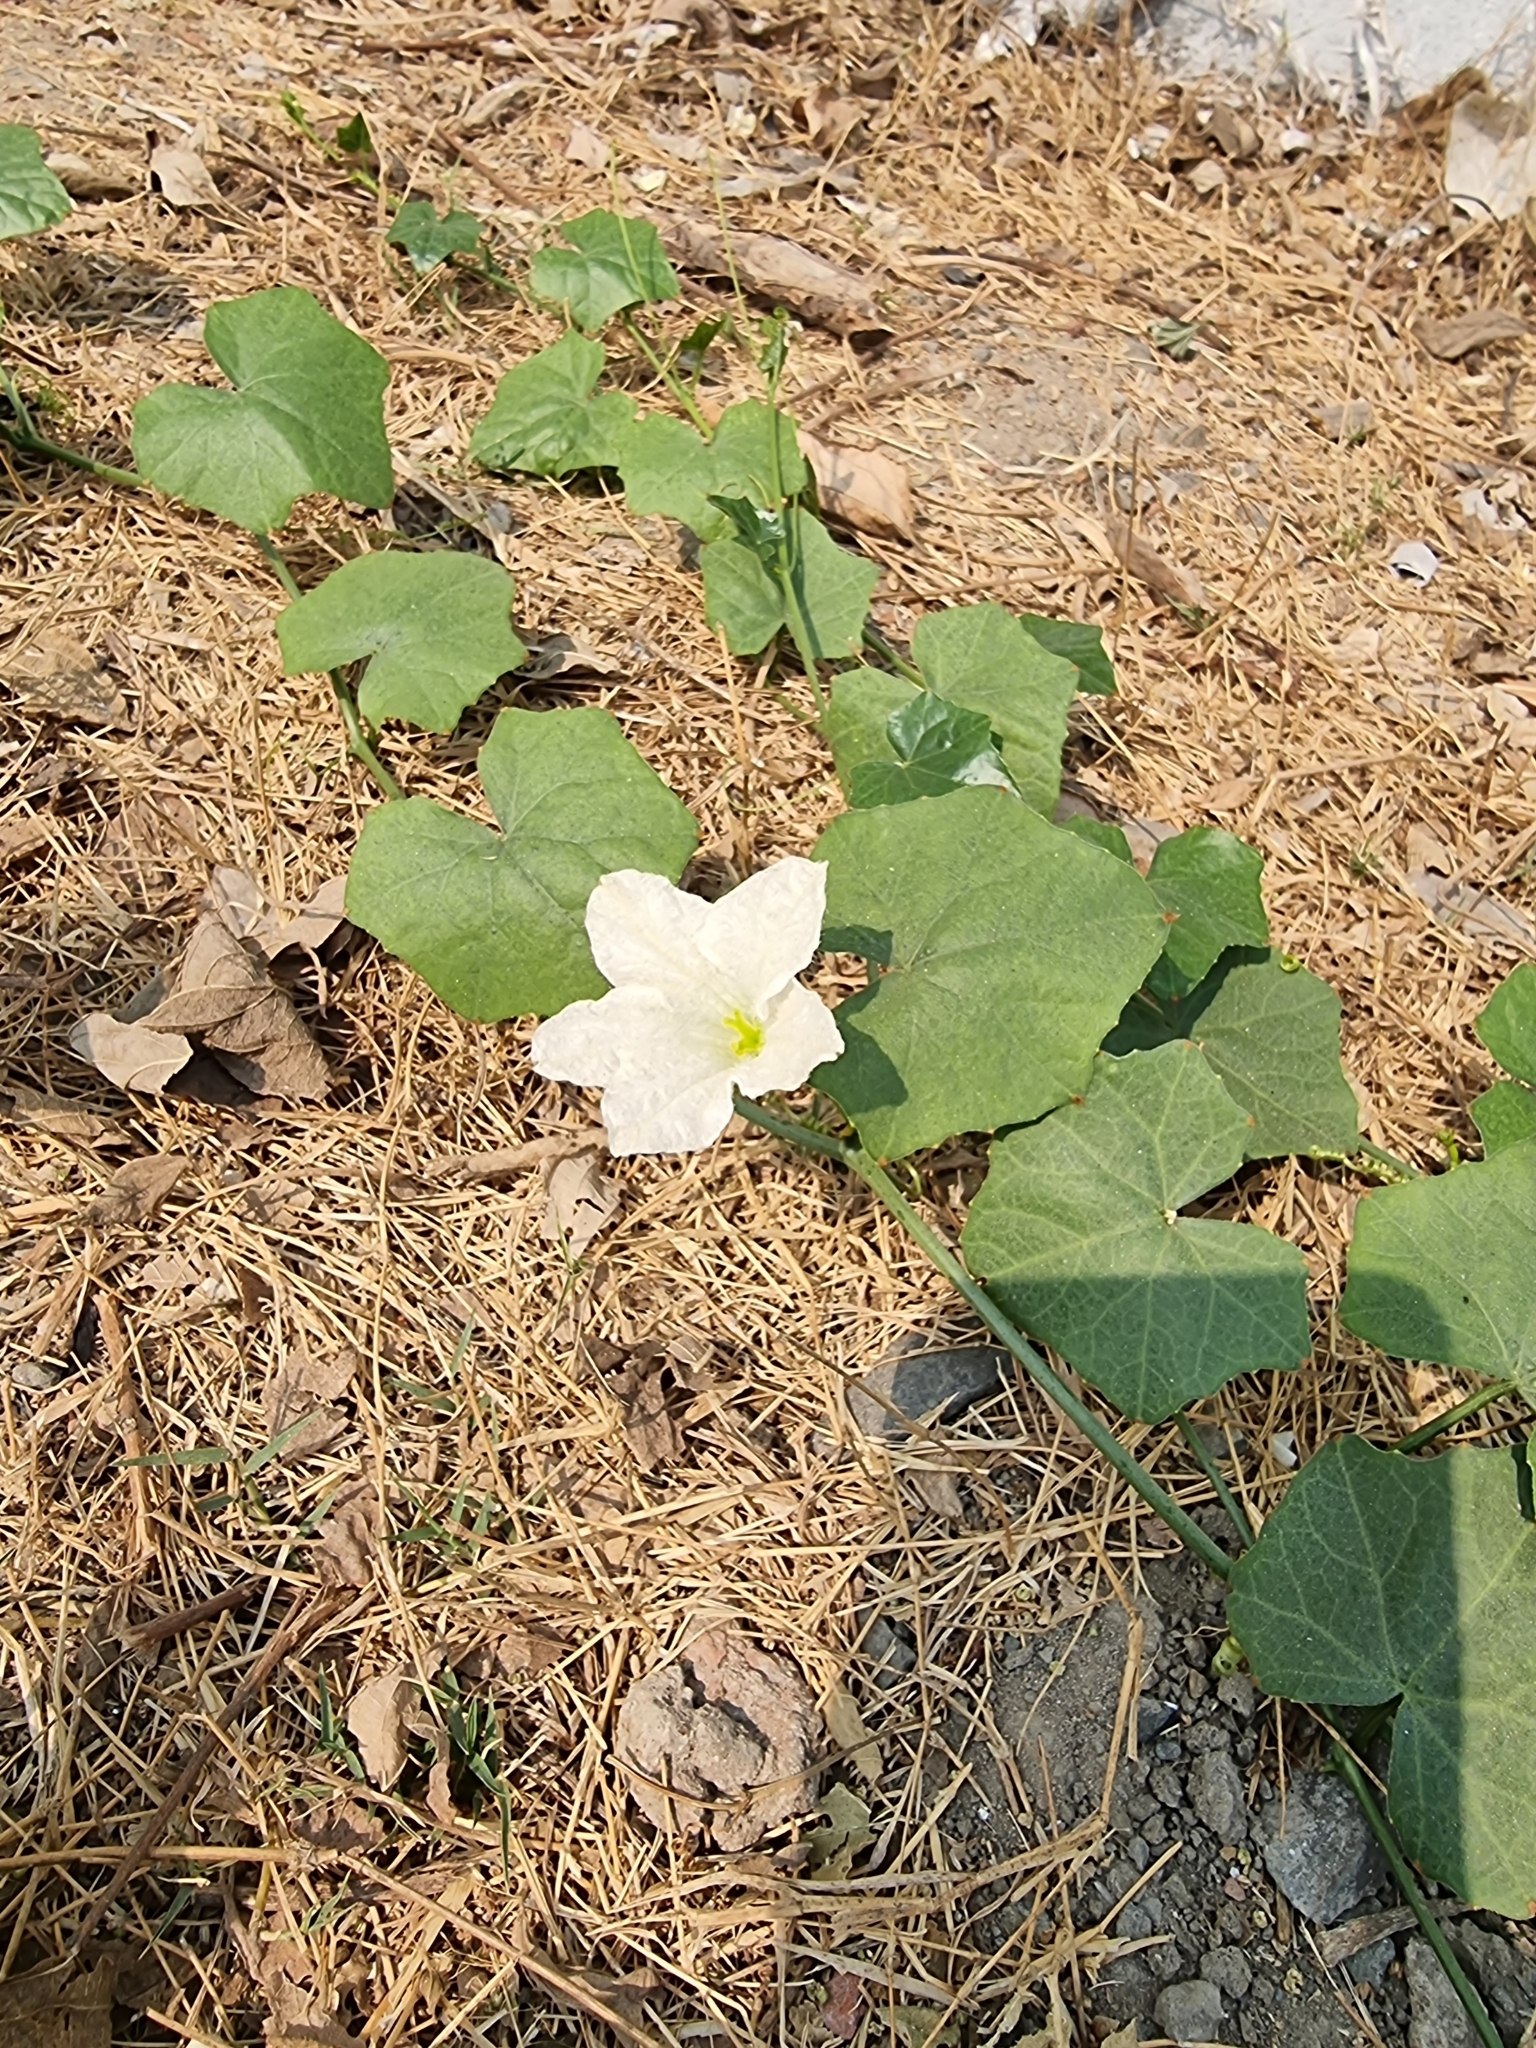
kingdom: Plantae
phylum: Tracheophyta
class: Magnoliopsida
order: Cucurbitales
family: Cucurbitaceae
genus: Coccinia
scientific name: Coccinia grandis
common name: Ivy gourd
